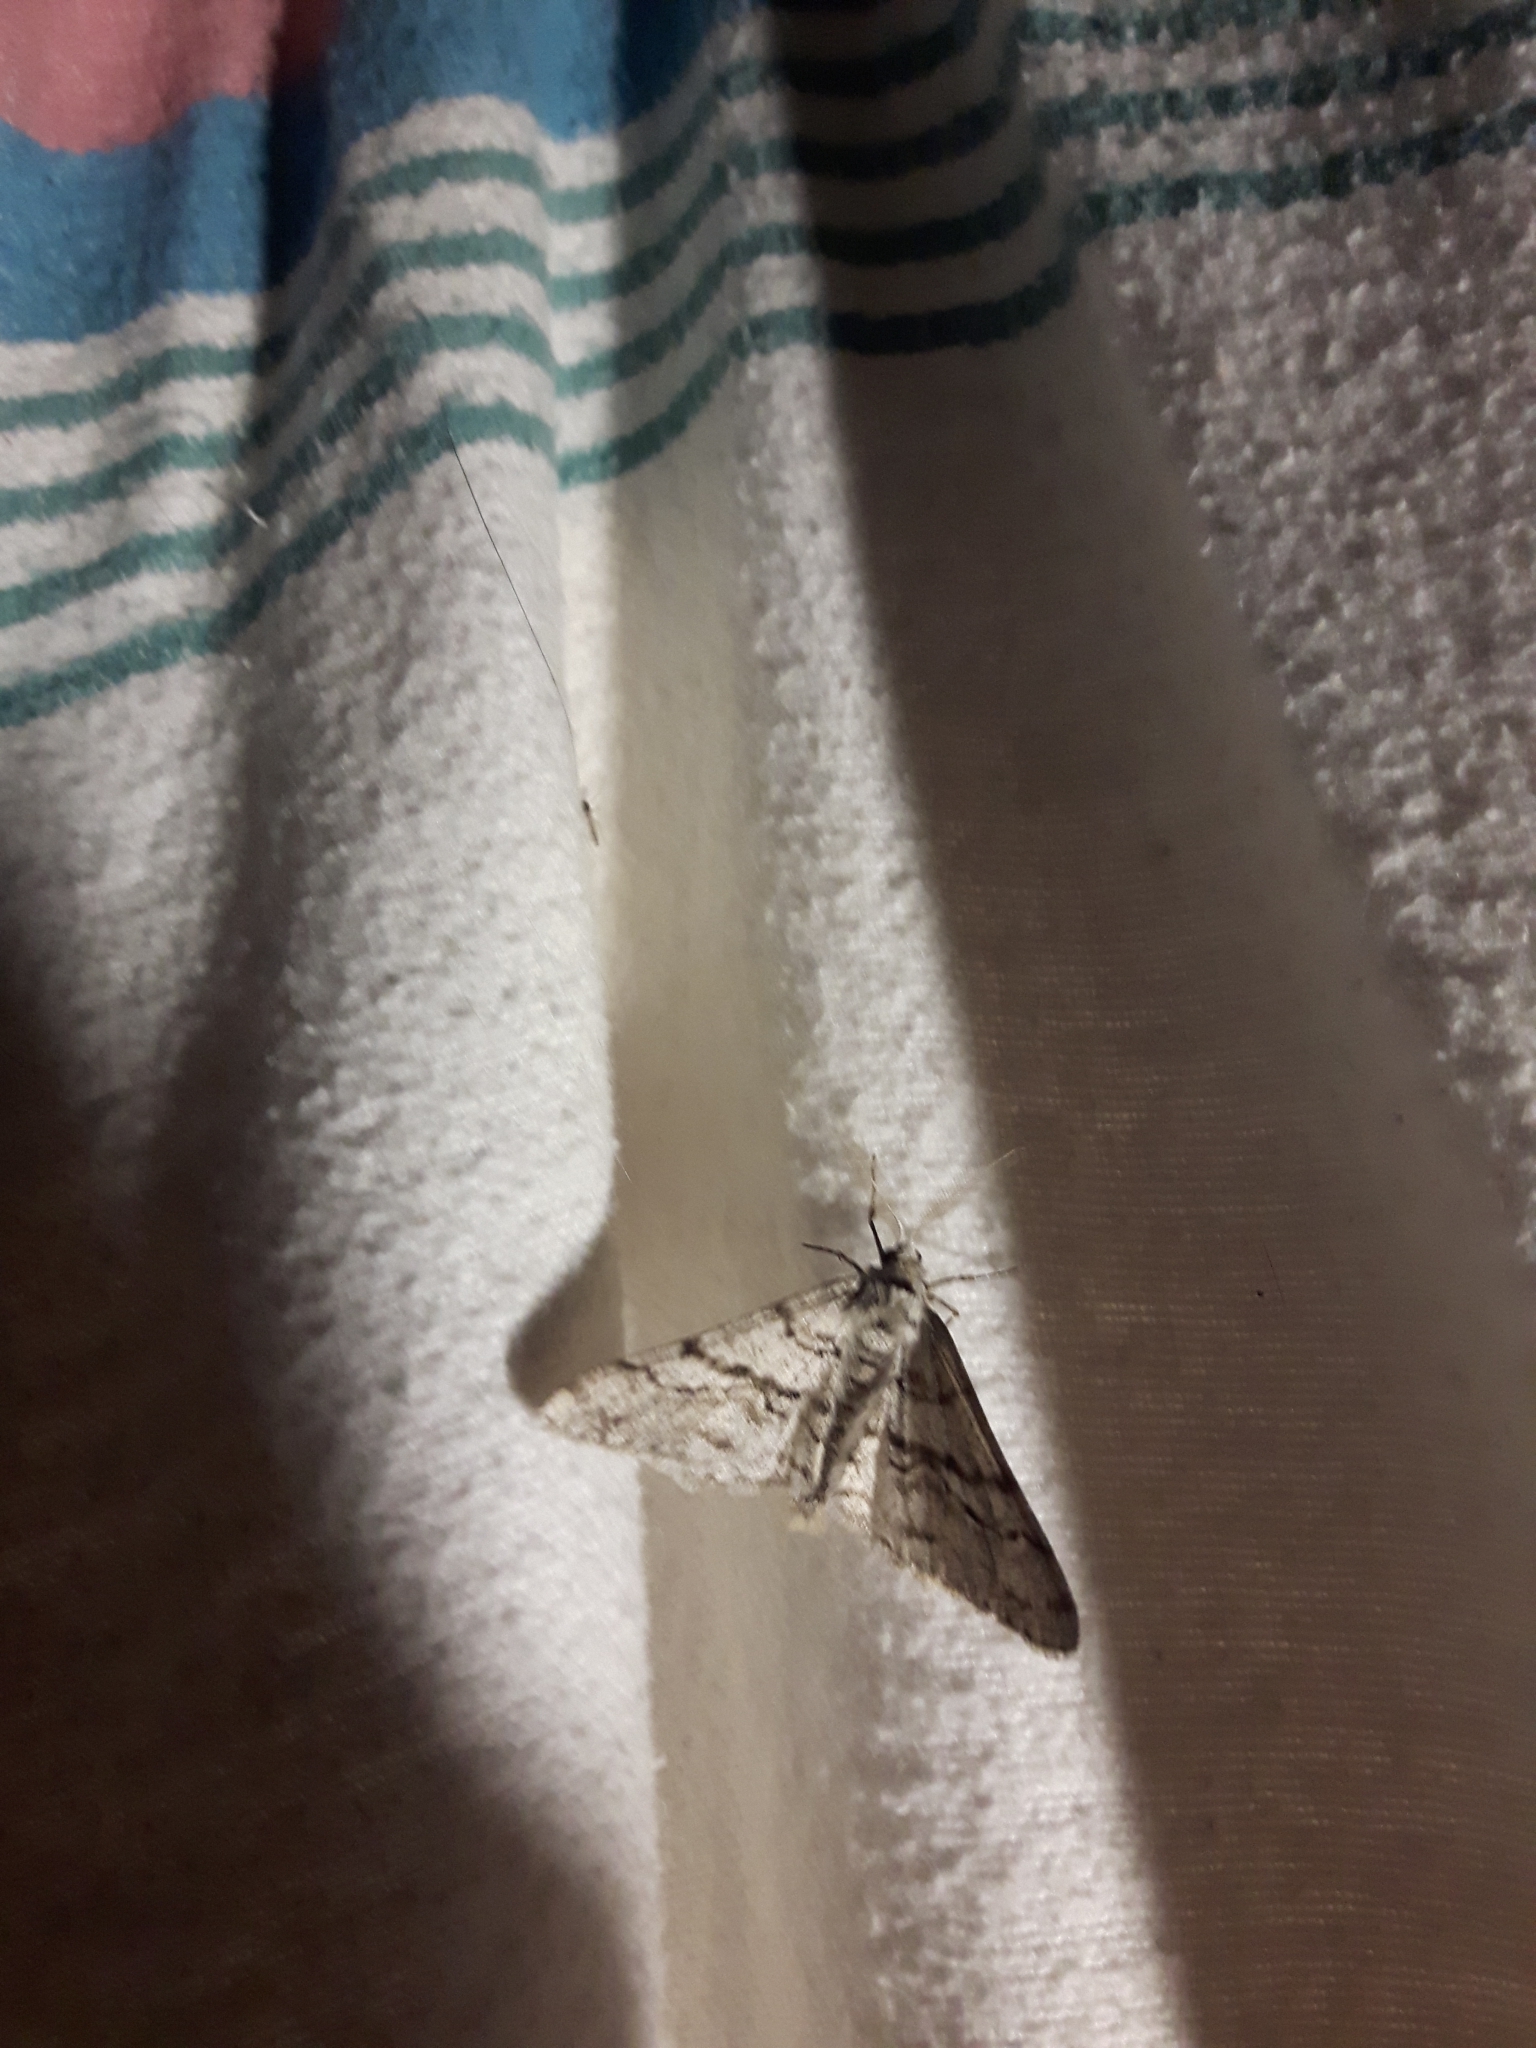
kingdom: Animalia
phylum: Arthropoda
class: Insecta
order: Lepidoptera
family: Geometridae
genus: Phigalia
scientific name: Phigalia titea
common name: Spiny looper
